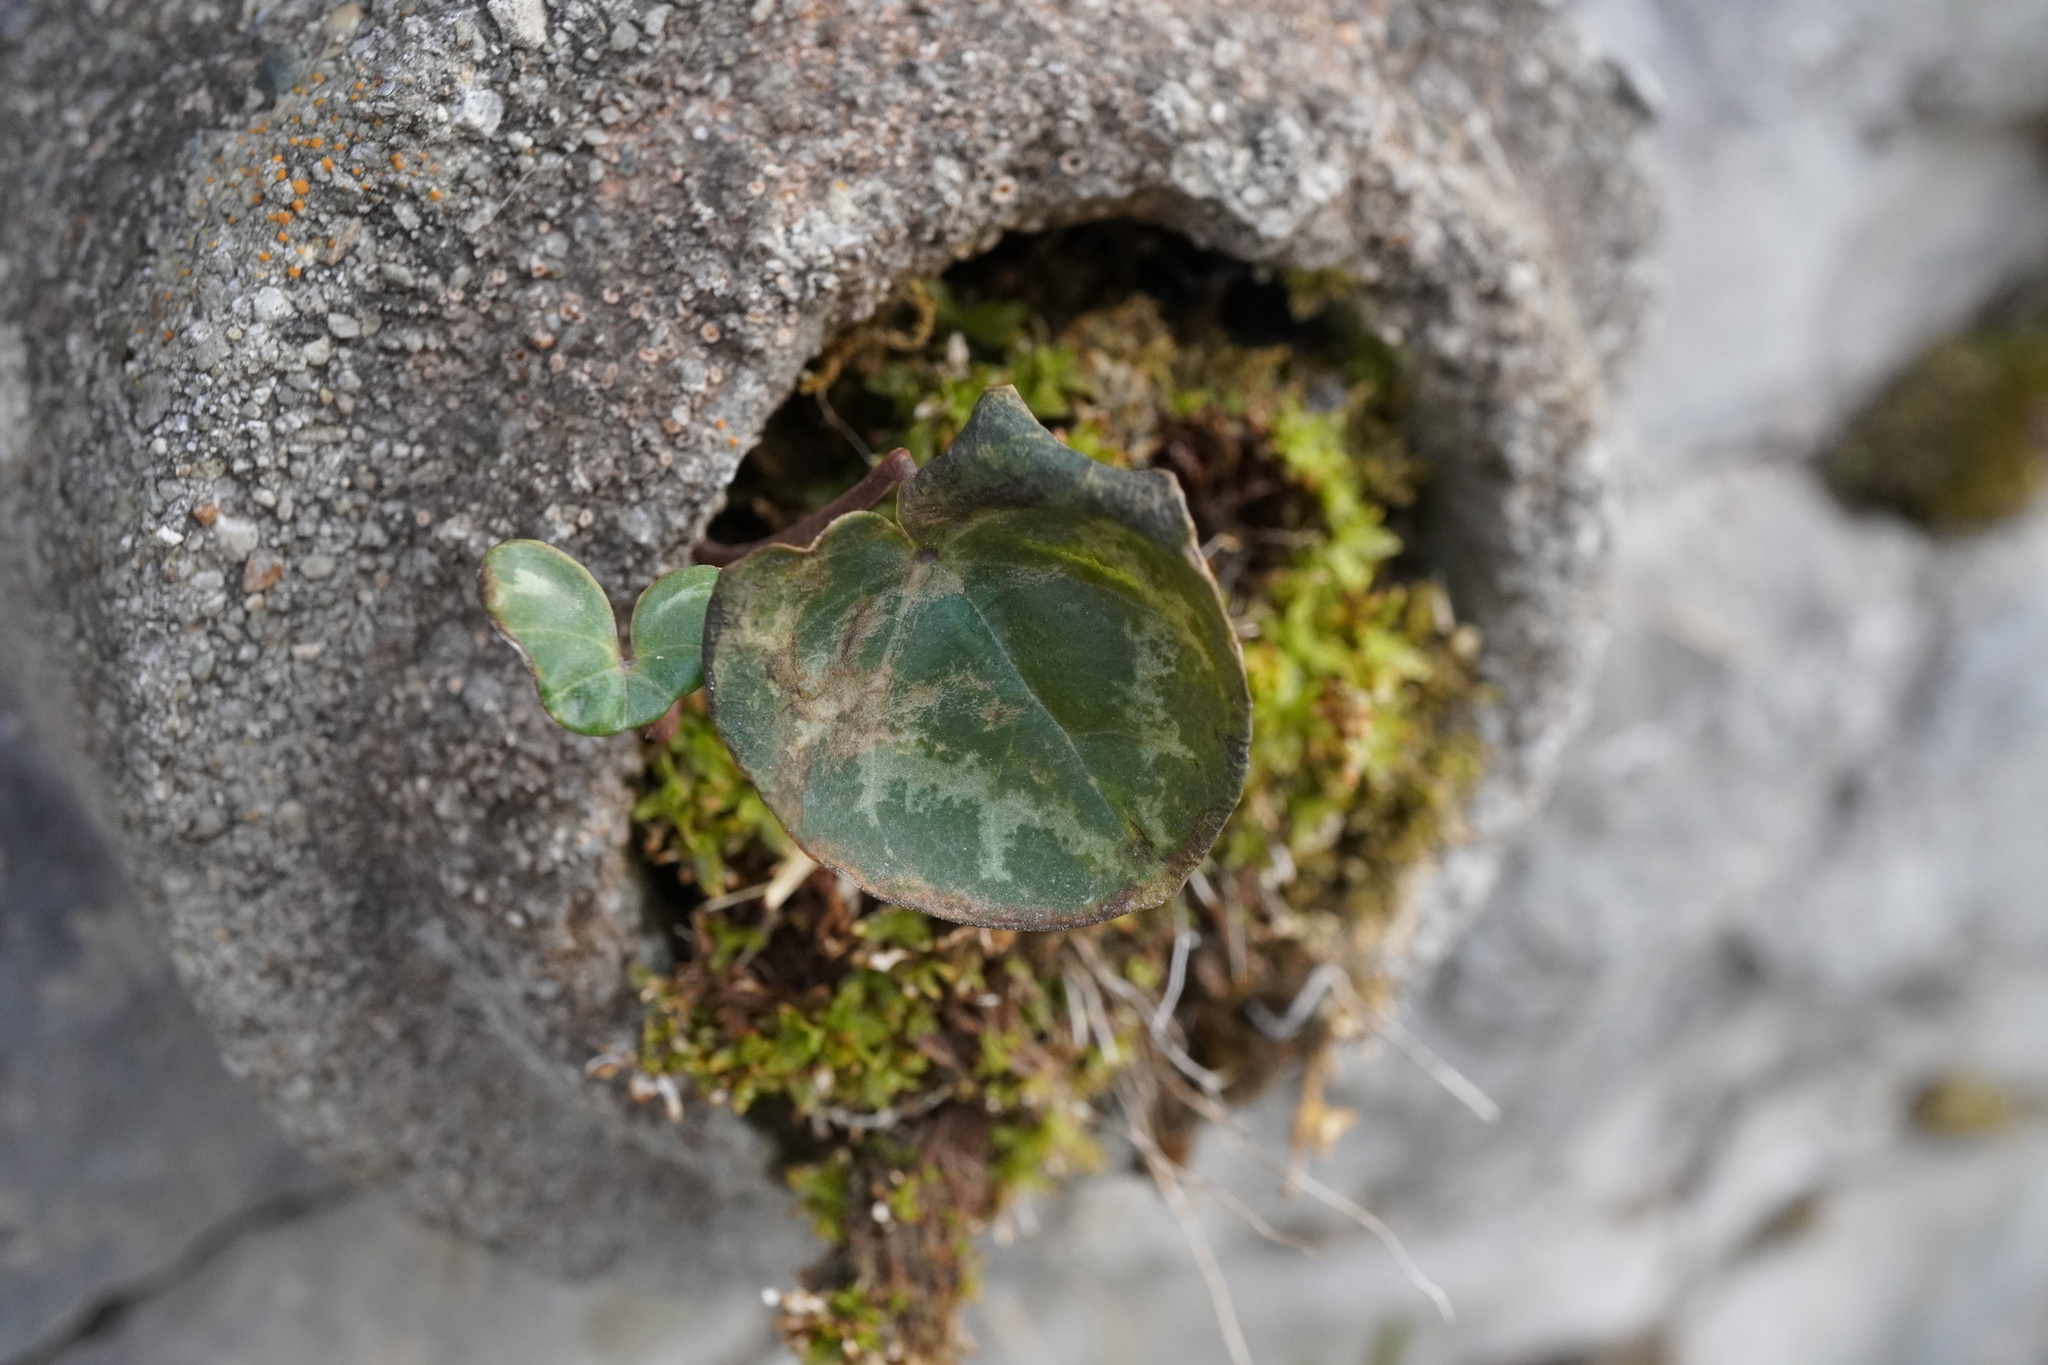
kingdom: Plantae
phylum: Tracheophyta
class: Magnoliopsida
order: Ericales
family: Primulaceae
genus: Cyclamen
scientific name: Cyclamen purpurascens
